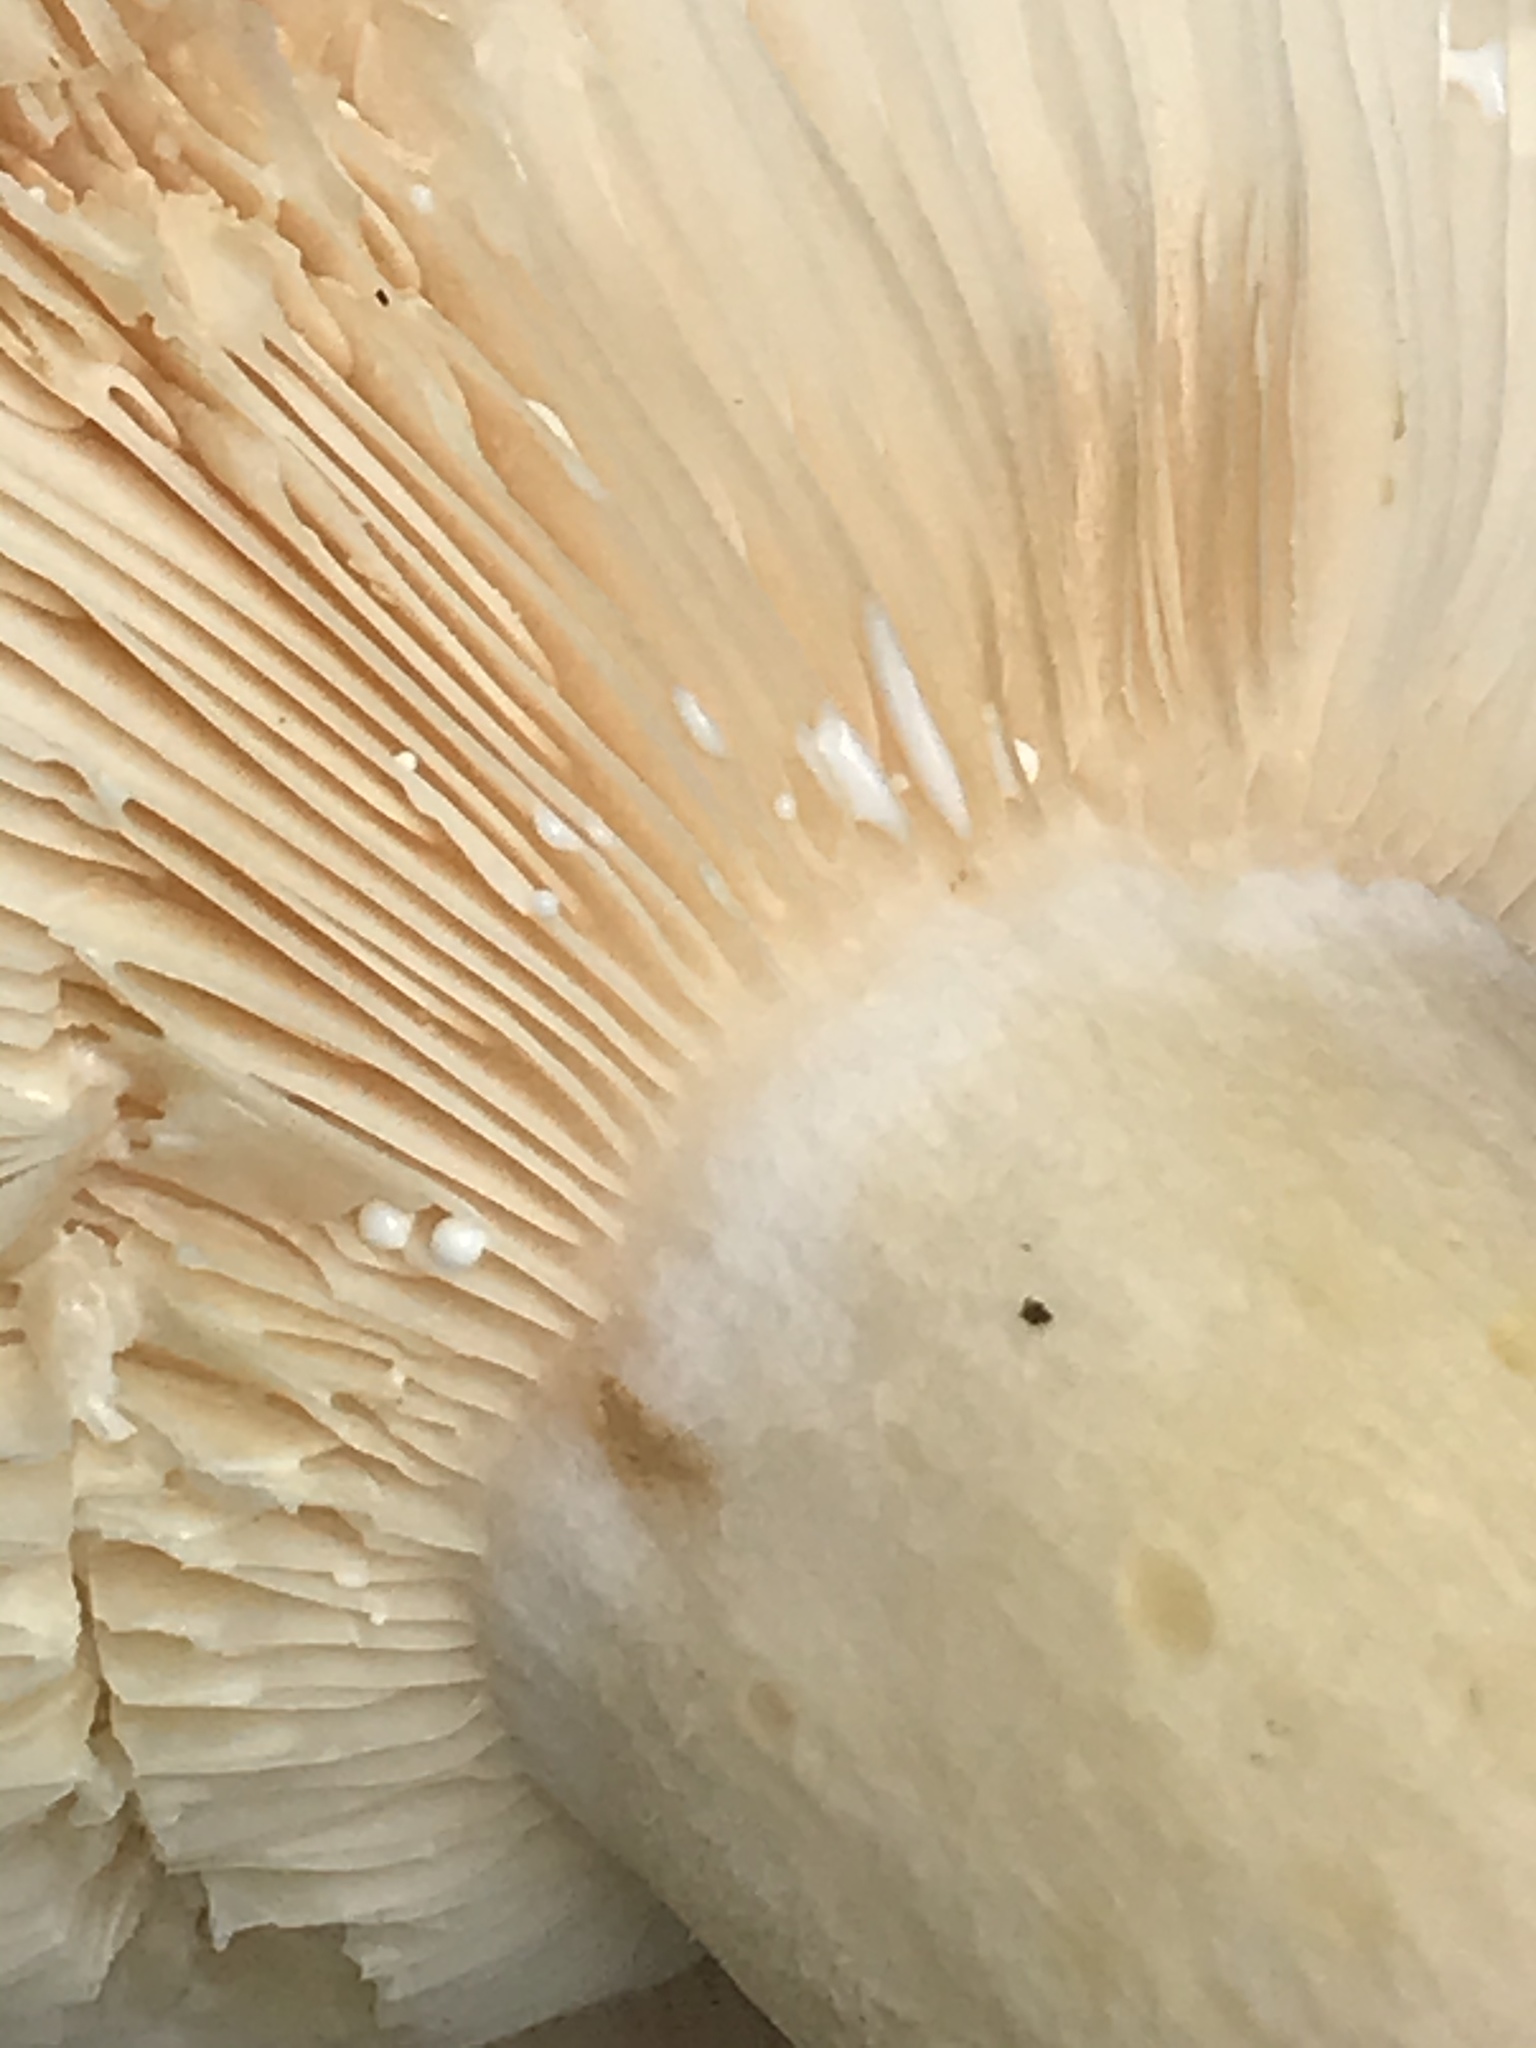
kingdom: Fungi
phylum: Basidiomycota
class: Agaricomycetes
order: Russulales
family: Russulaceae
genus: Lactarius
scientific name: Lactarius alnicola
